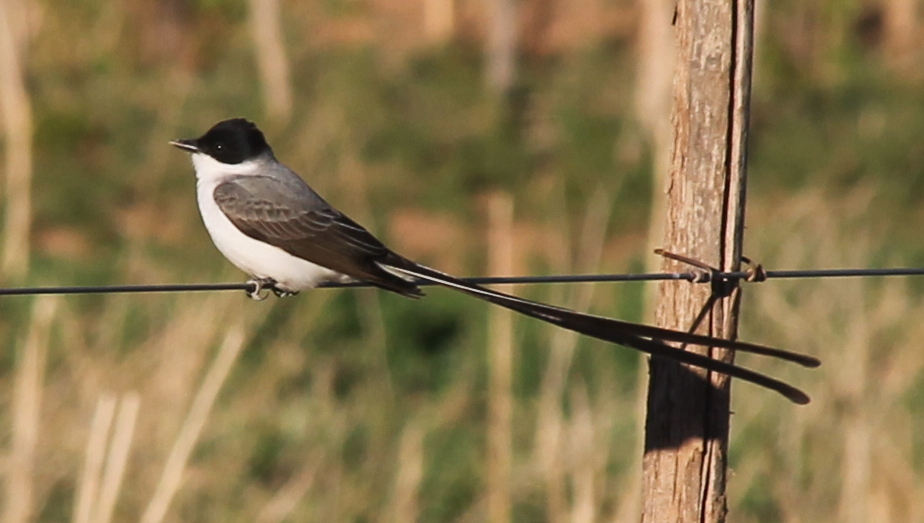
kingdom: Animalia
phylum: Chordata
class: Aves
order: Passeriformes
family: Tyrannidae
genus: Tyrannus
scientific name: Tyrannus savana
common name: Fork-tailed flycatcher
